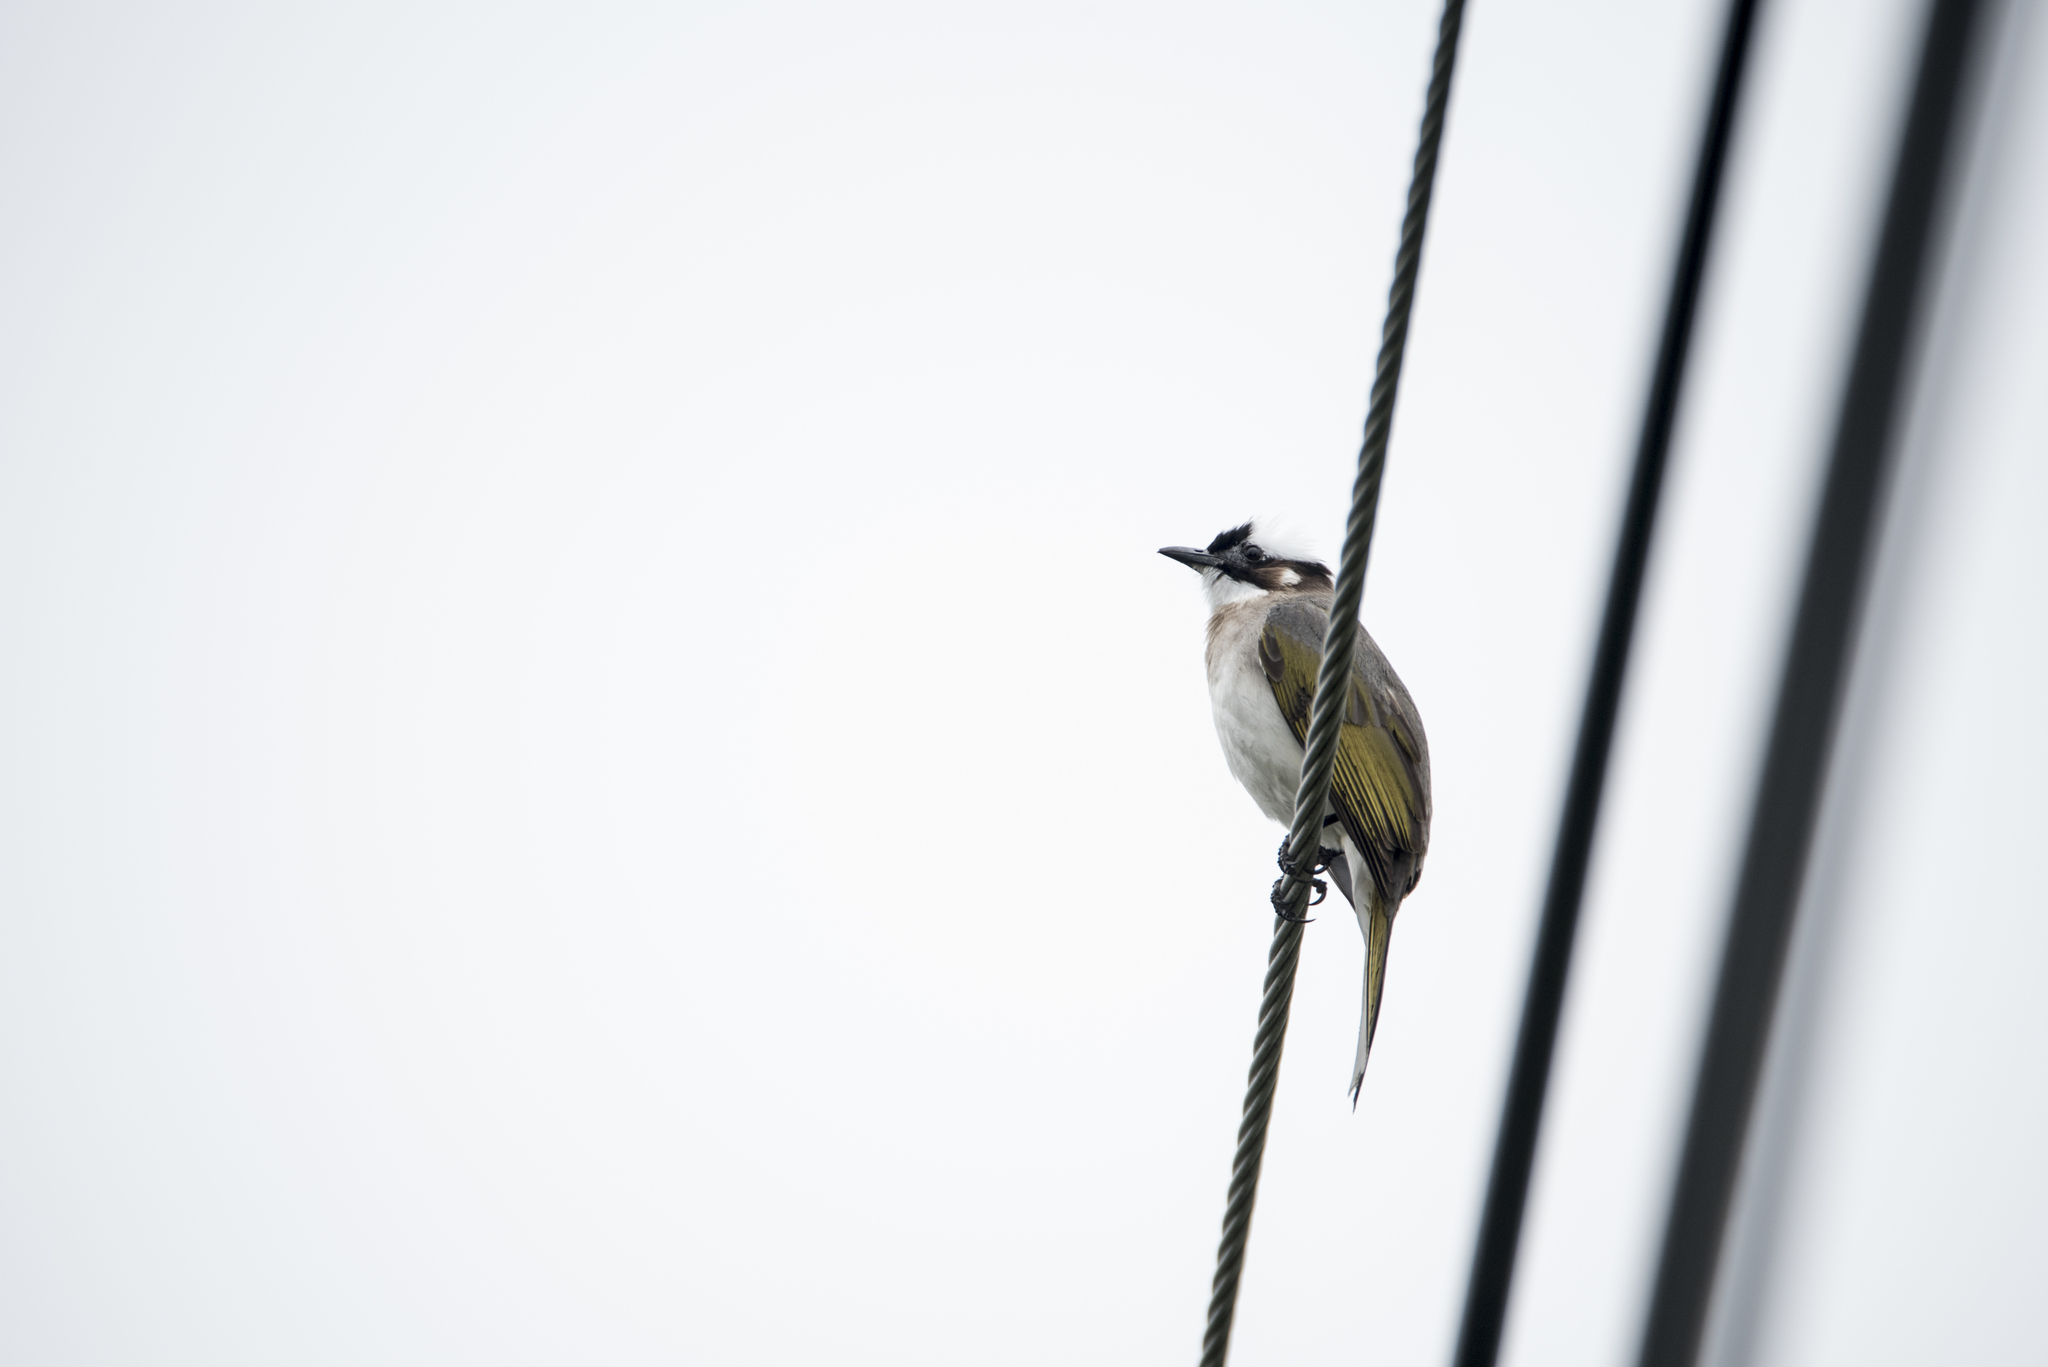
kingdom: Animalia
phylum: Chordata
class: Aves
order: Passeriformes
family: Pycnonotidae
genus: Pycnonotus
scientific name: Pycnonotus sinensis
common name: Light-vented bulbul
